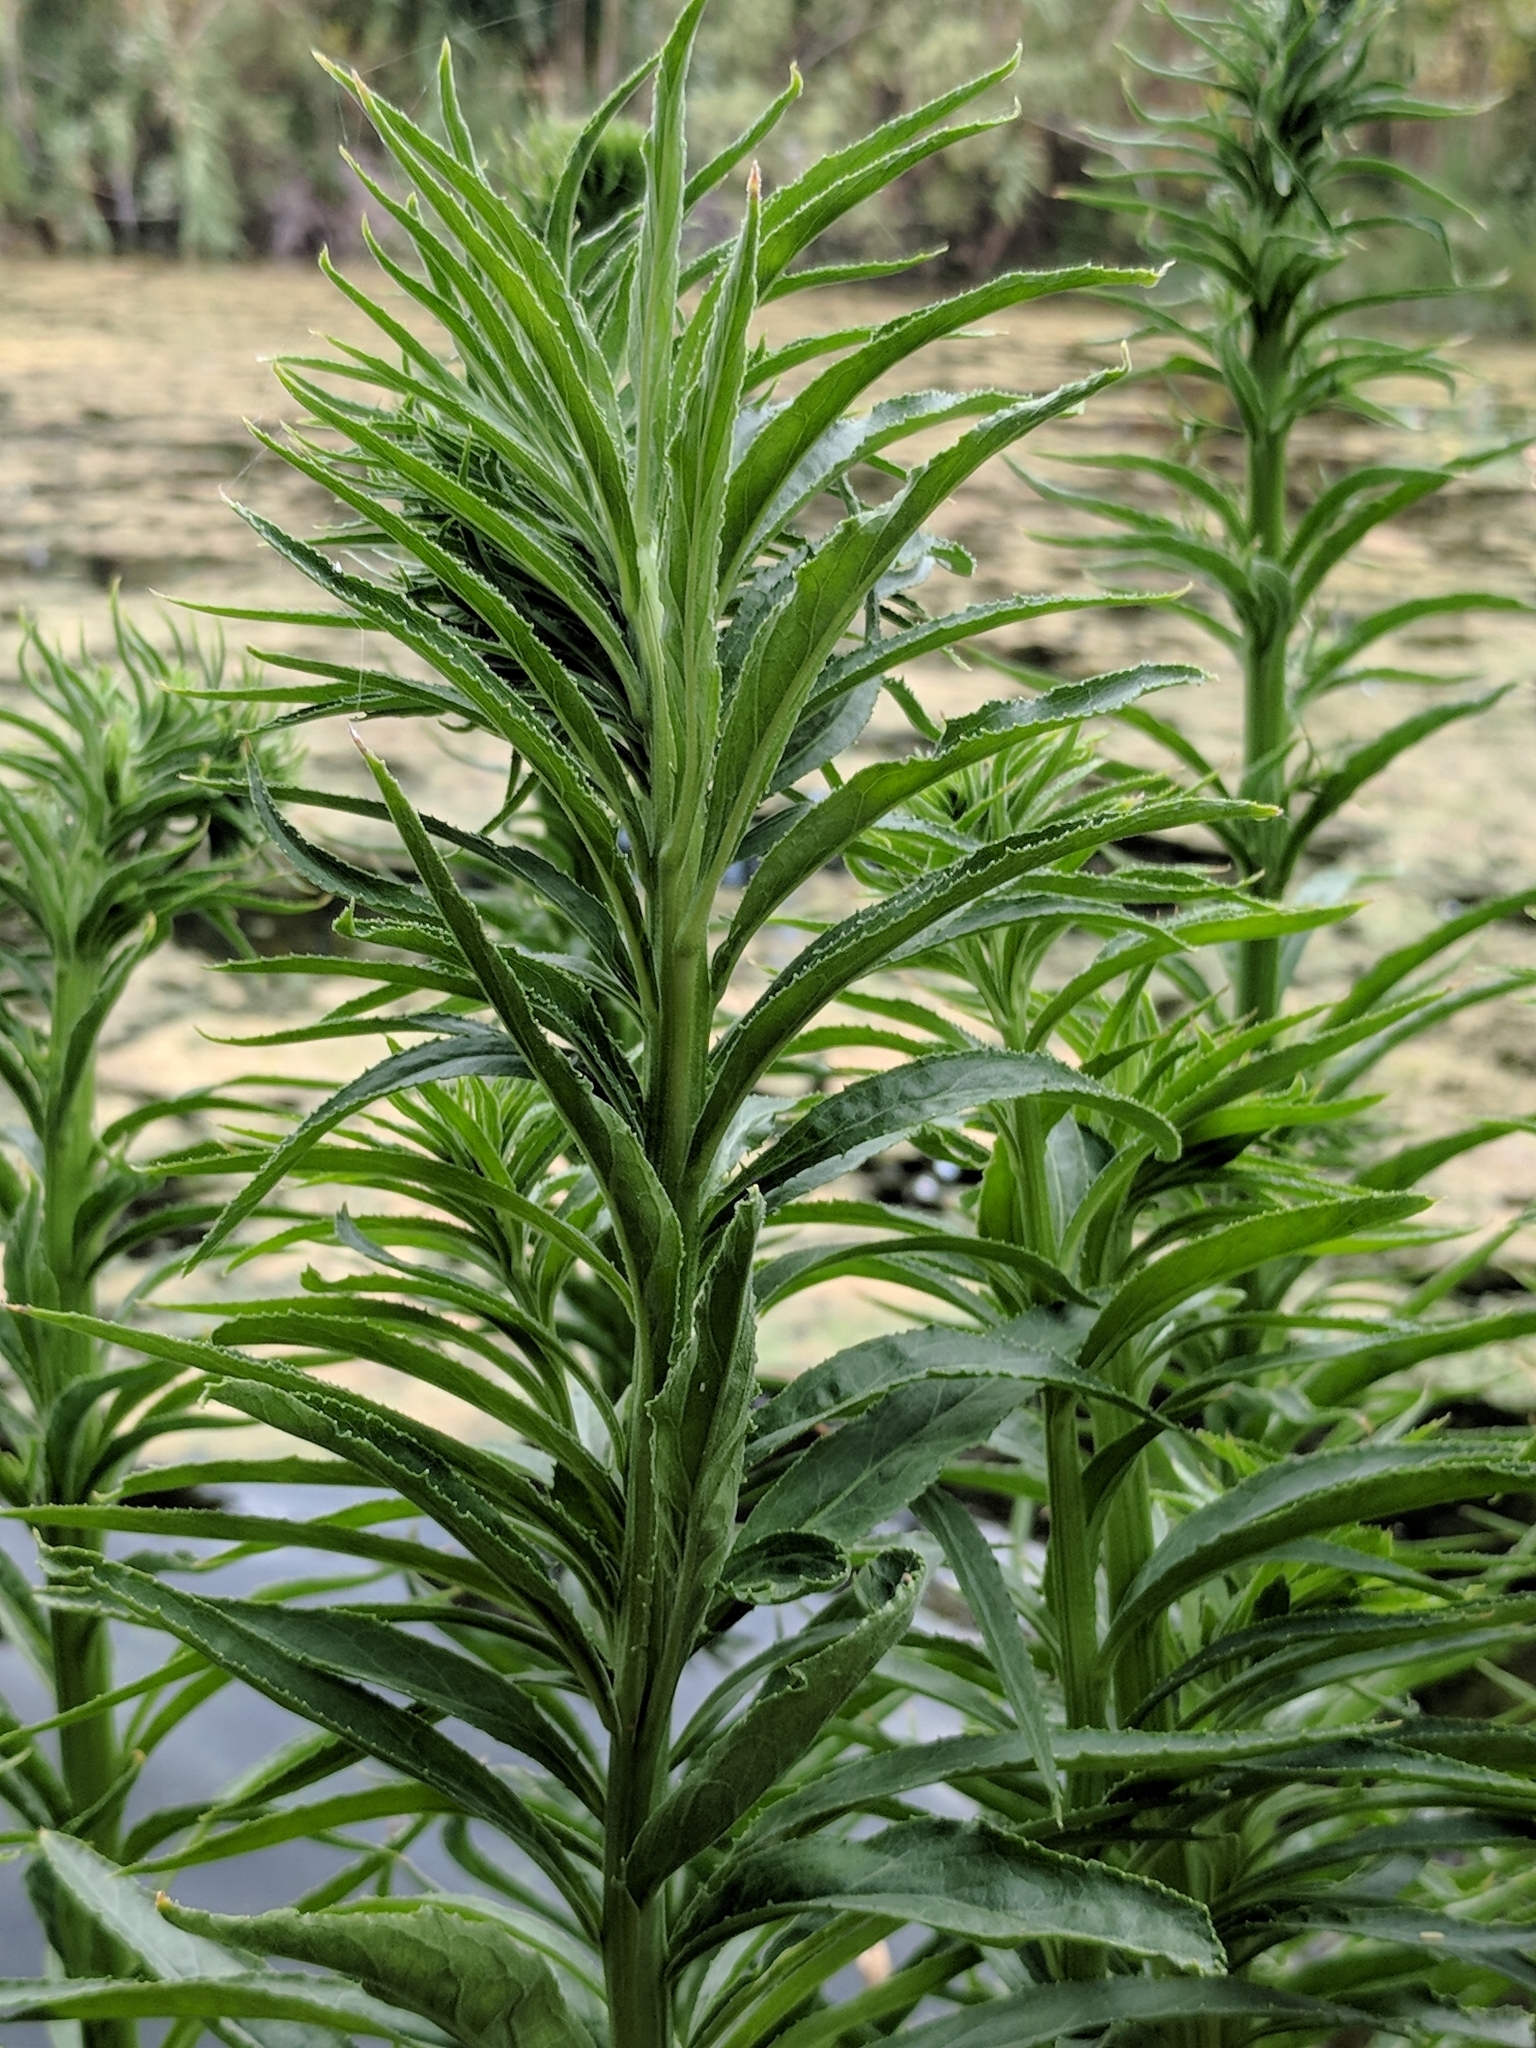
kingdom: Plantae
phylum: Tracheophyta
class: Magnoliopsida
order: Asterales
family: Campanulaceae
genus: Lobelia
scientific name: Lobelia cardinalis
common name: Cardinal flower
